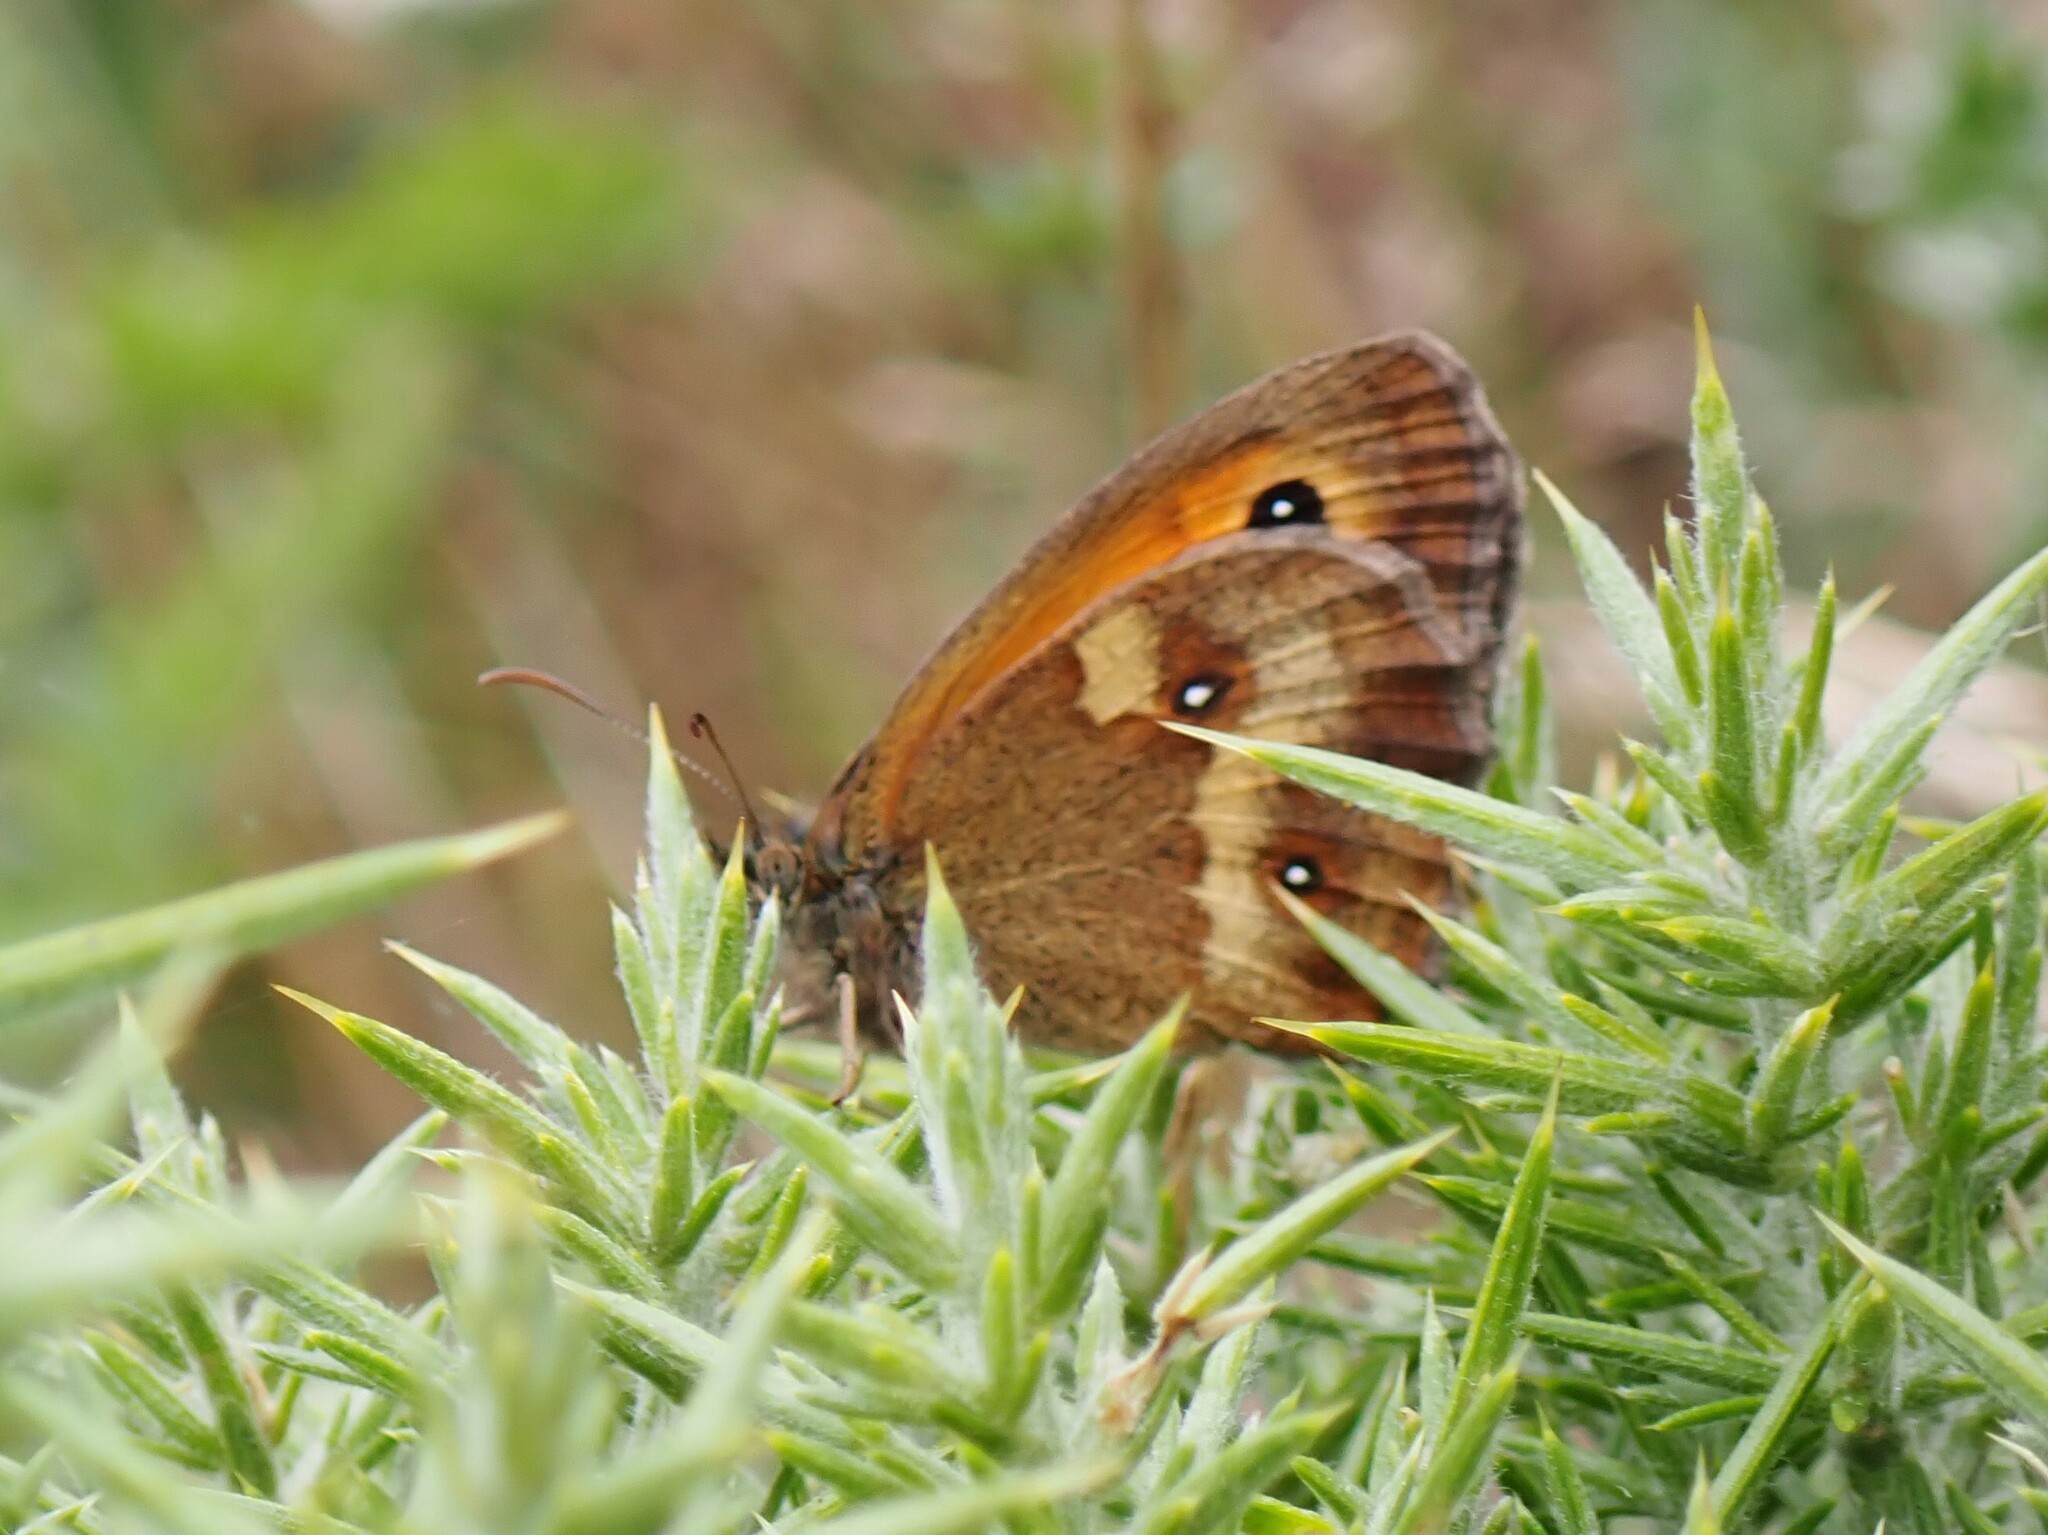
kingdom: Animalia
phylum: Arthropoda
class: Insecta
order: Lepidoptera
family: Nymphalidae
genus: Pyronia
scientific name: Pyronia tithonus
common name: Gatekeeper
